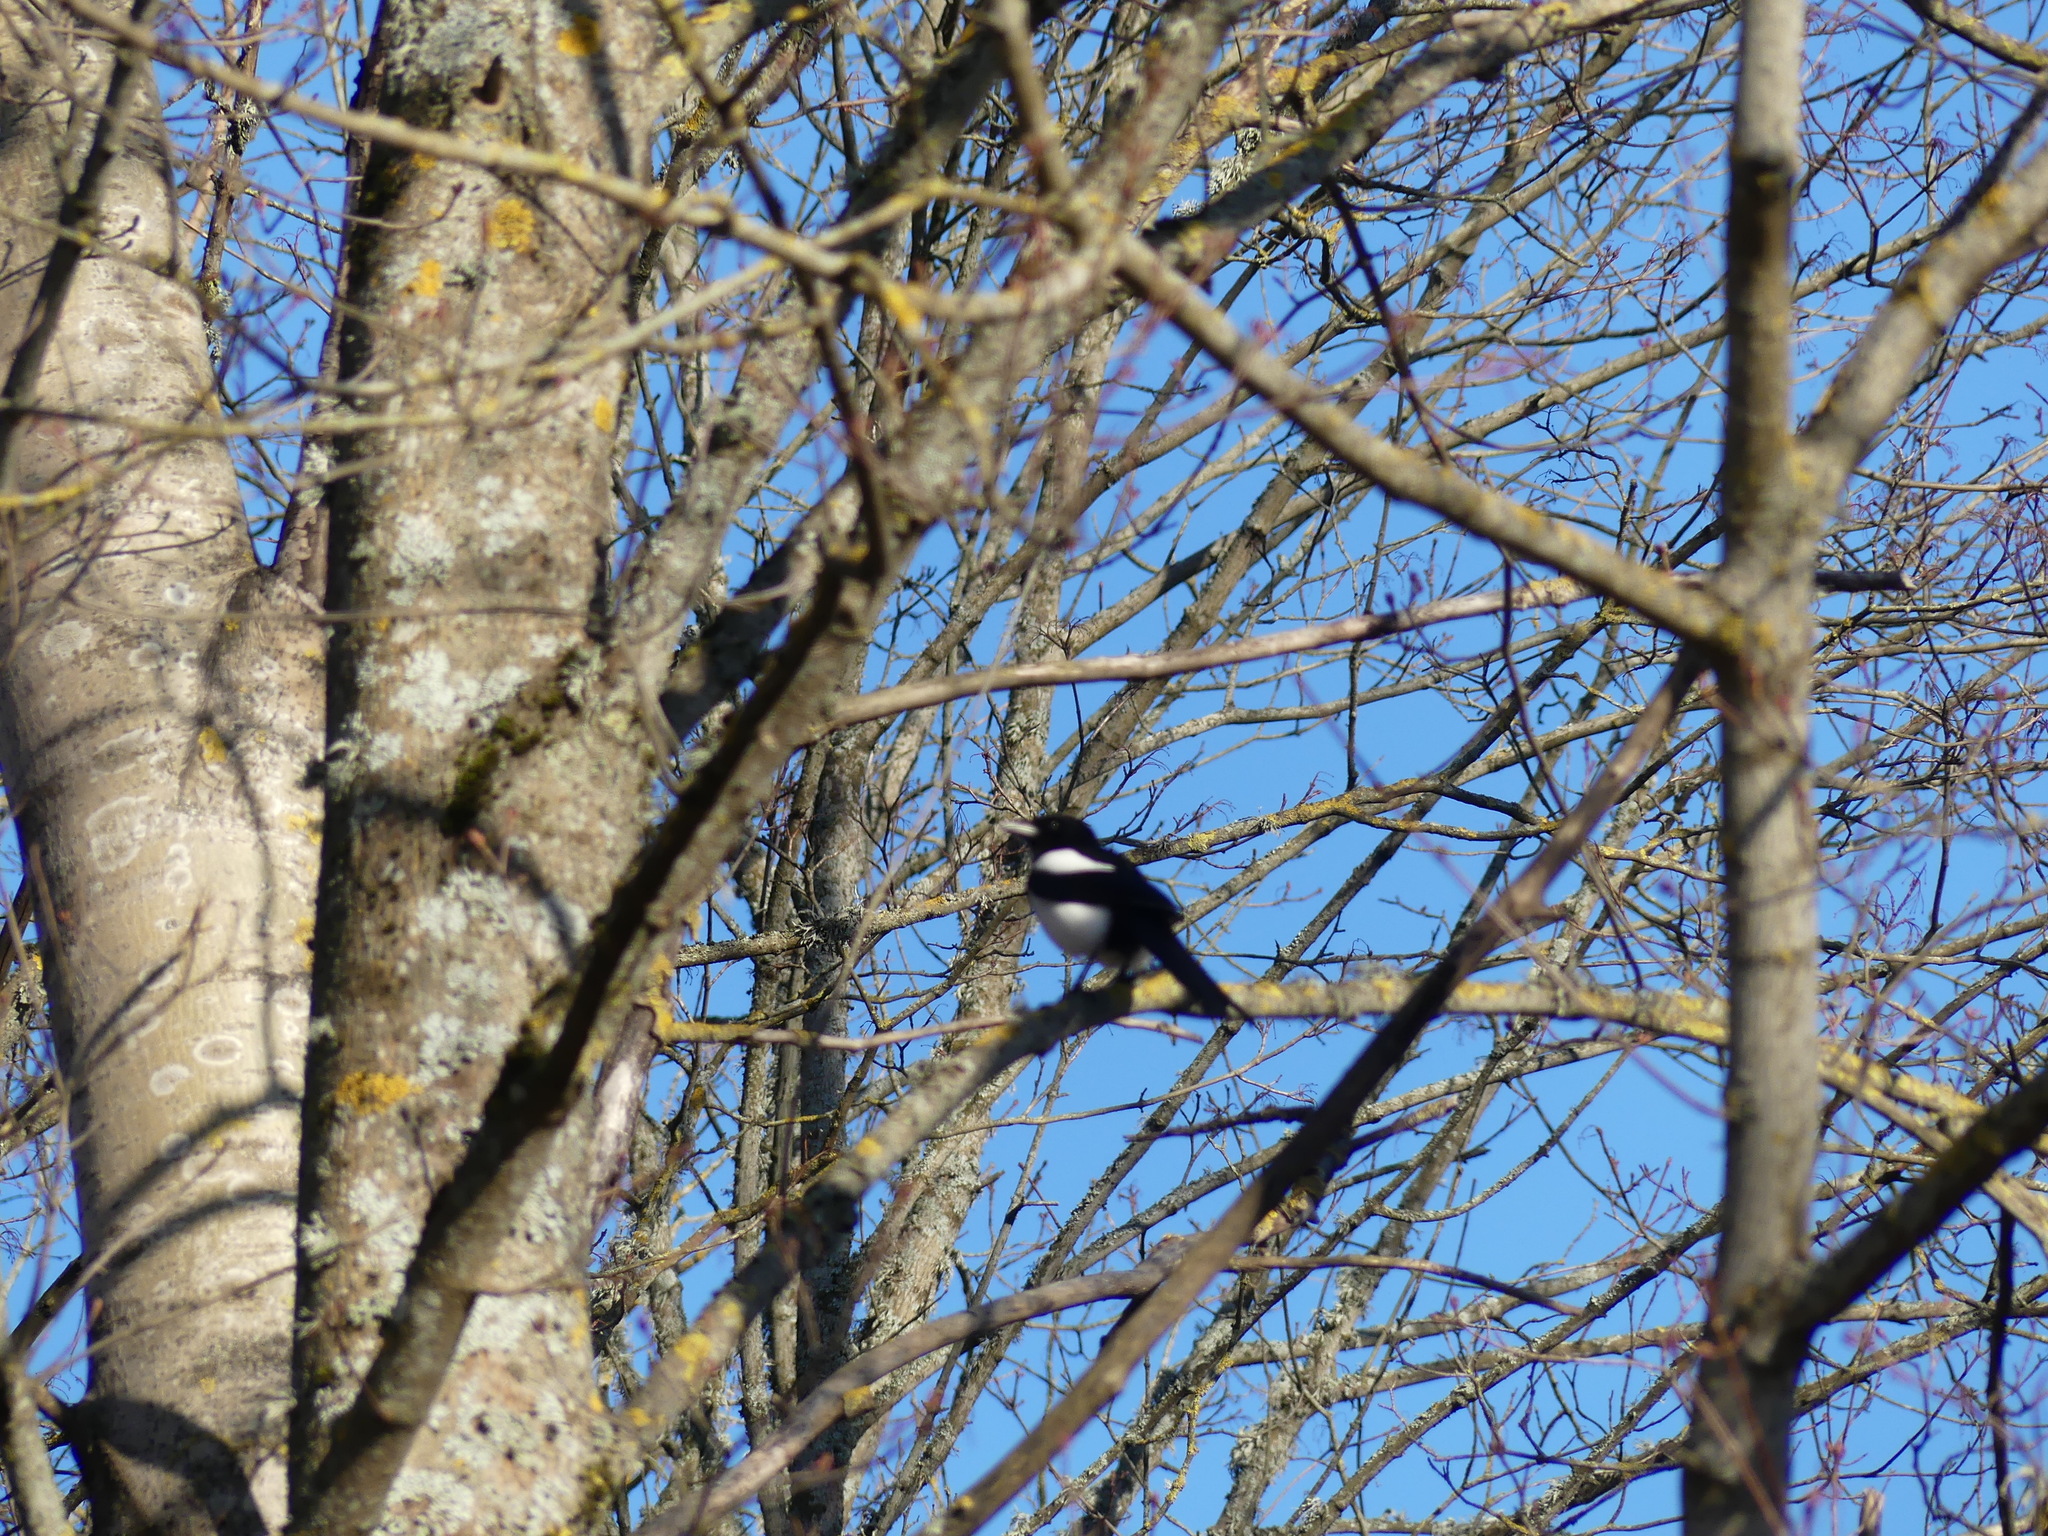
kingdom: Animalia
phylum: Chordata
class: Aves
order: Passeriformes
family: Corvidae
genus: Pica
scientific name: Pica pica
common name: Eurasian magpie
